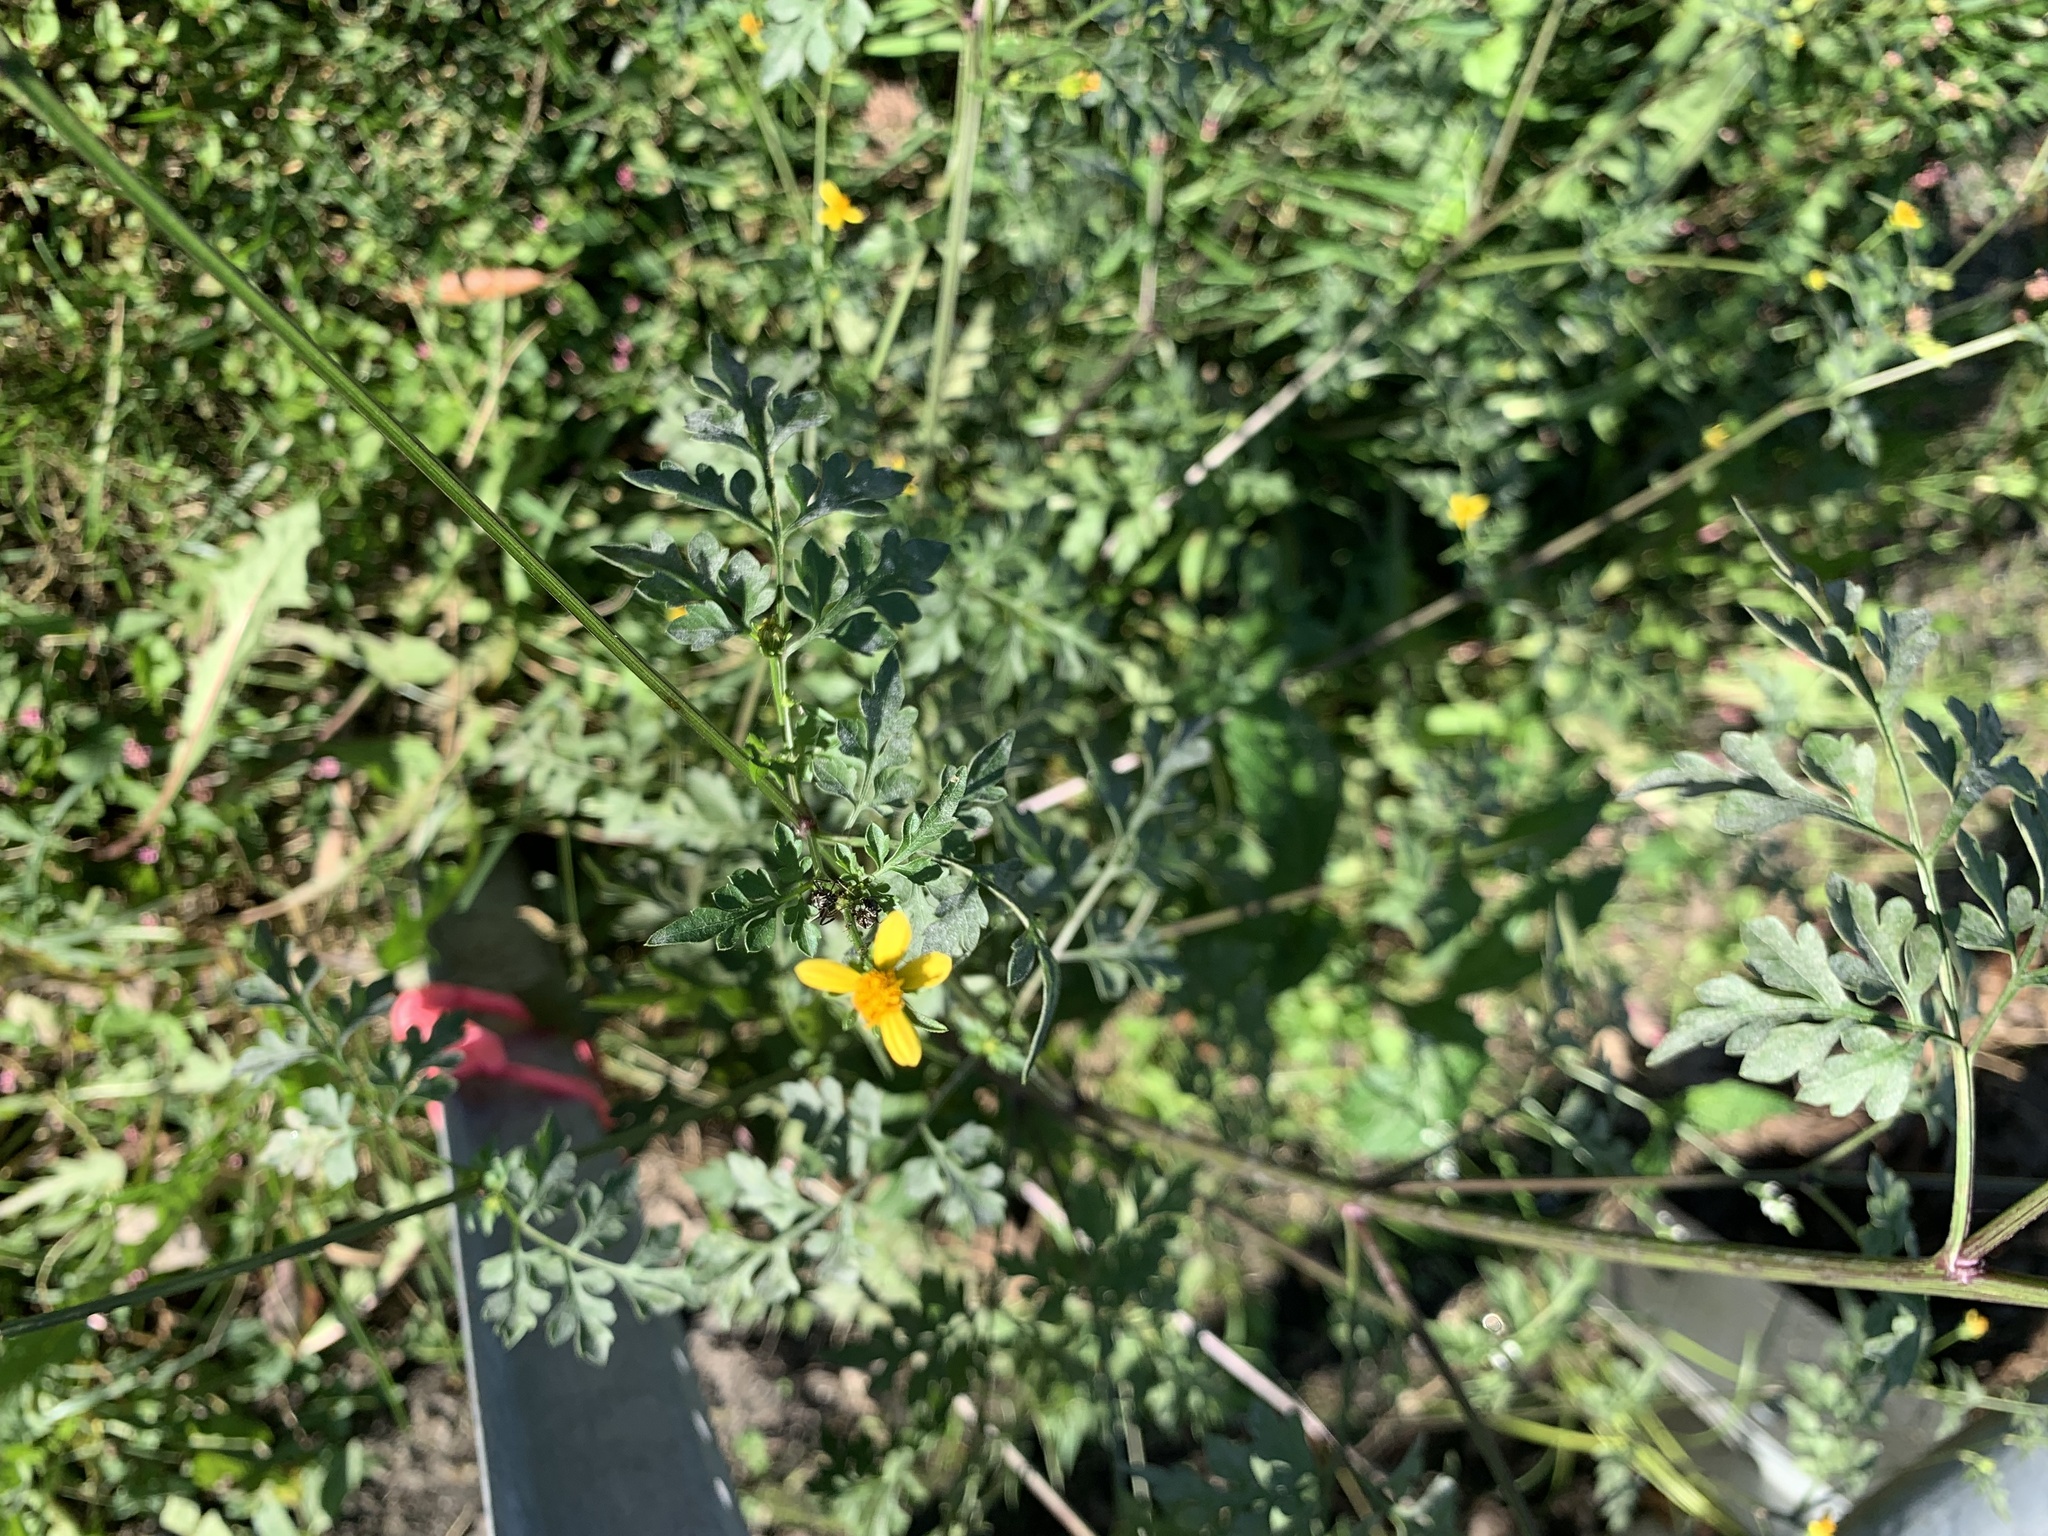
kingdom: Plantae
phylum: Tracheophyta
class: Magnoliopsida
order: Asterales
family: Asteraceae
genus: Bidens
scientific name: Bidens bipinnata
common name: Spanish-needles
